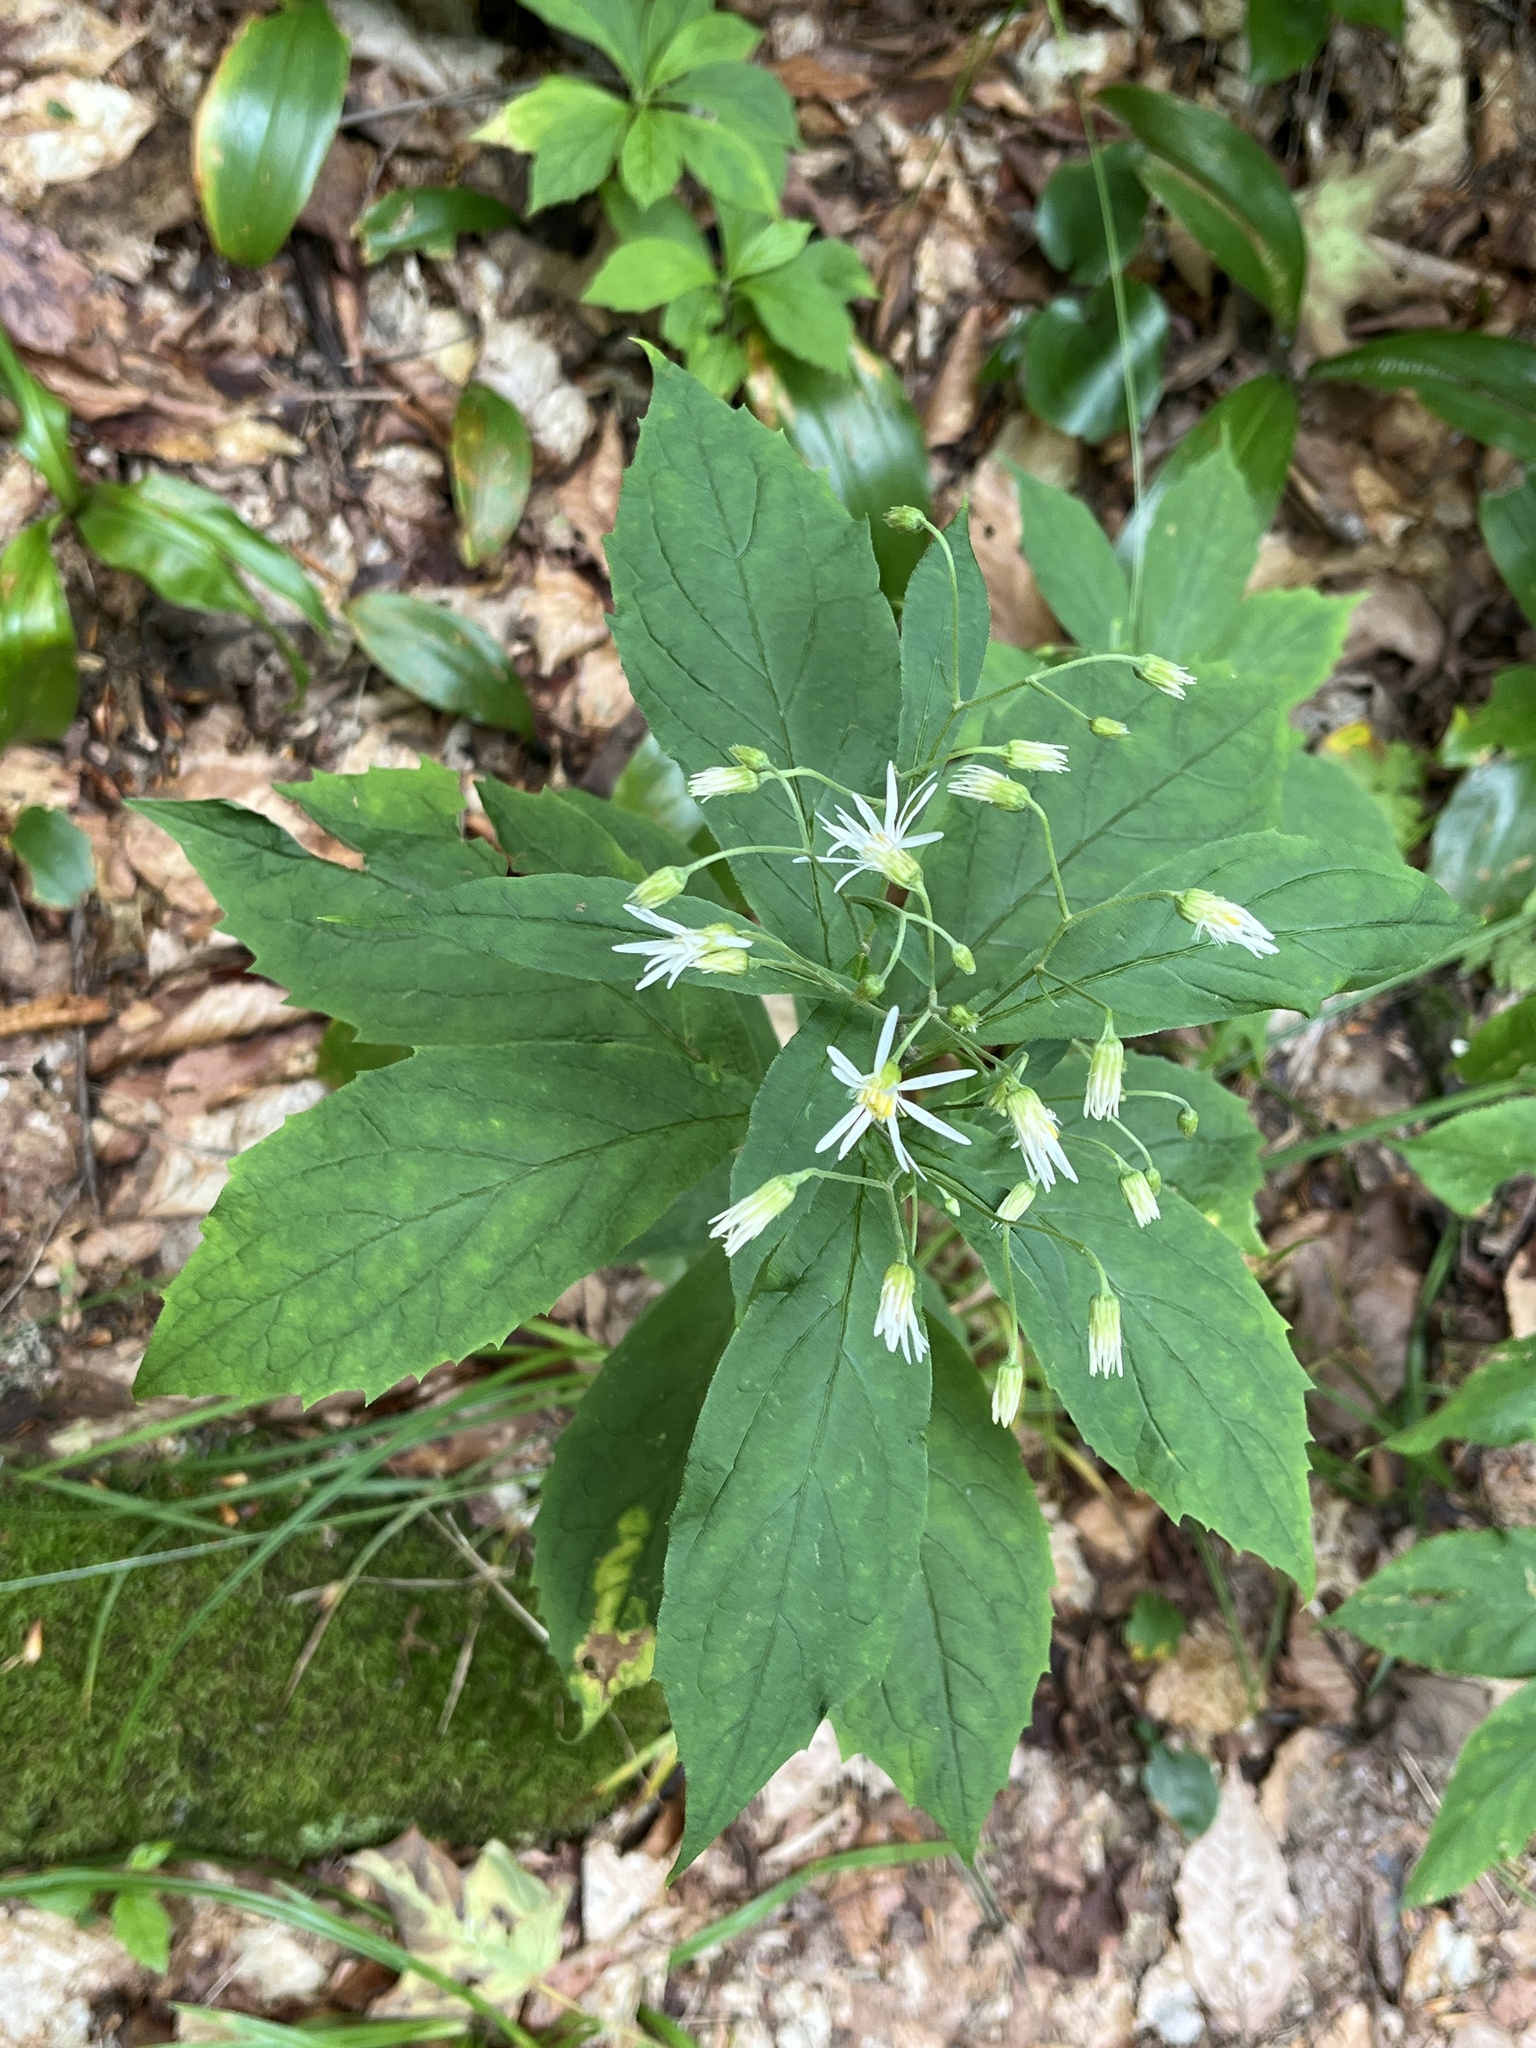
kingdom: Plantae
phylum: Tracheophyta
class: Magnoliopsida
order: Asterales
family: Asteraceae
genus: Oclemena
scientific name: Oclemena acuminata
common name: Mountain aster
